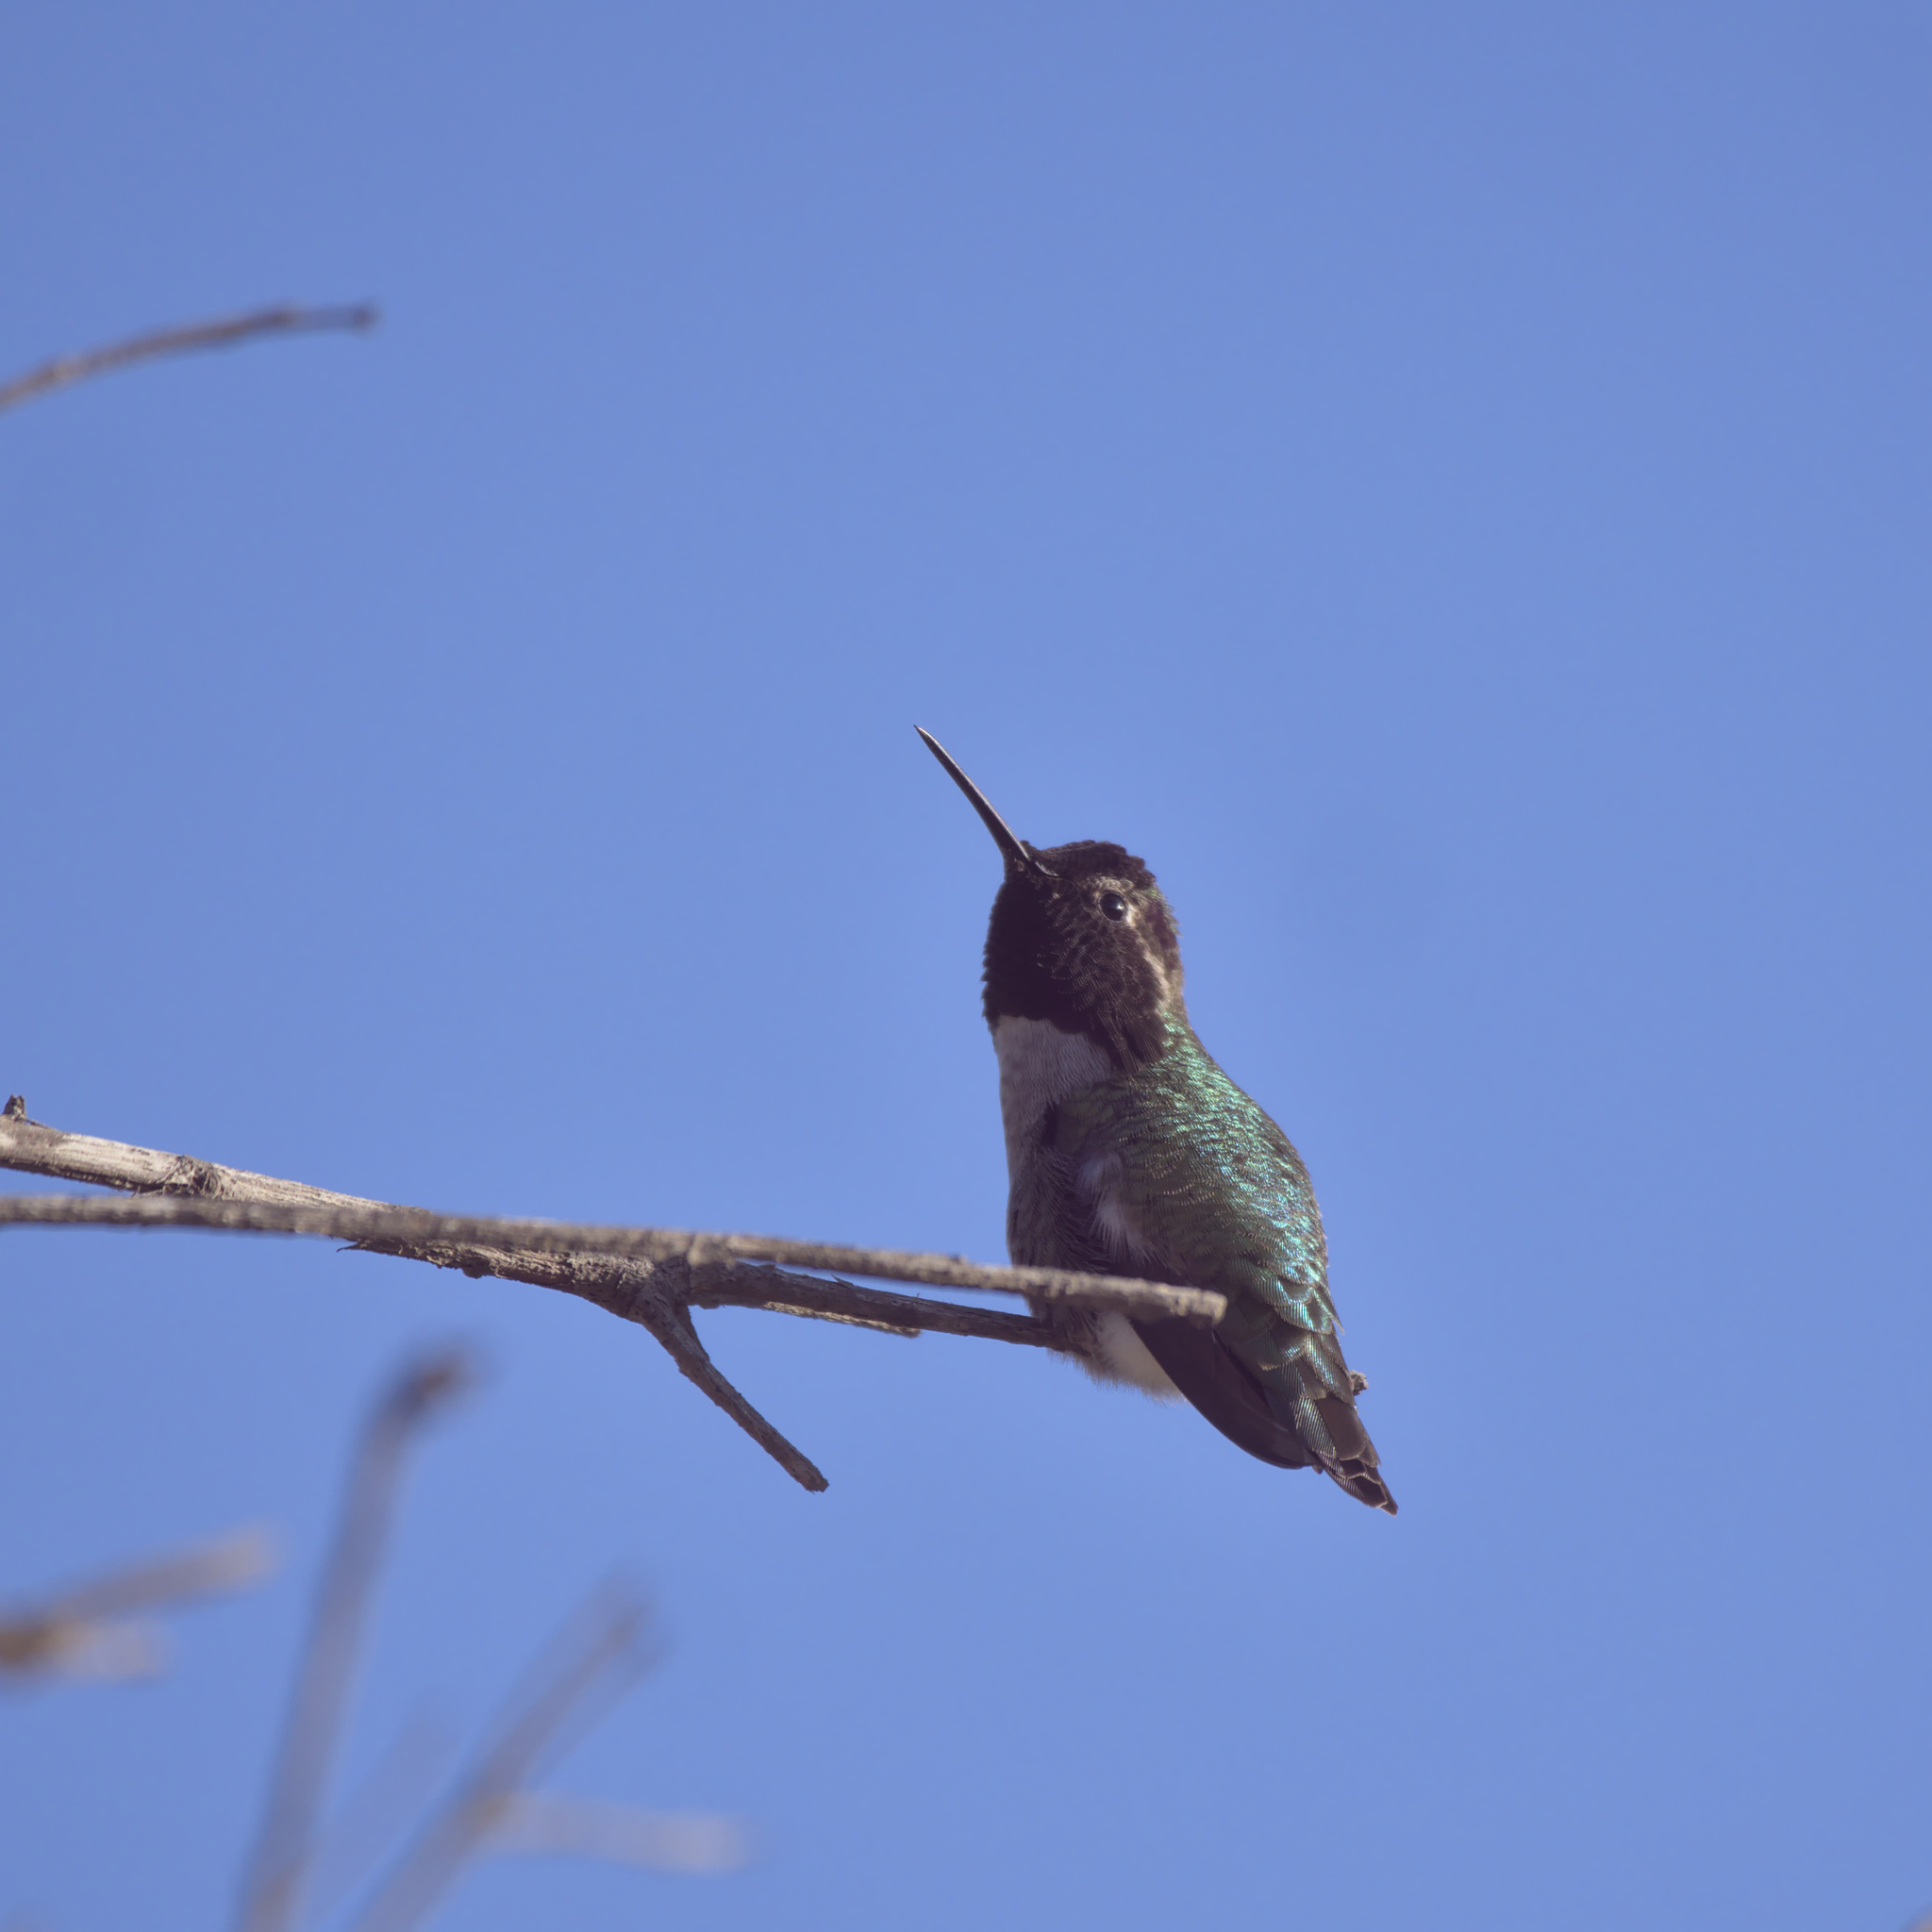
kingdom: Animalia
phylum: Chordata
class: Aves
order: Apodiformes
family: Trochilidae
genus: Calypte
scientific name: Calypte anna
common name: Anna's hummingbird
